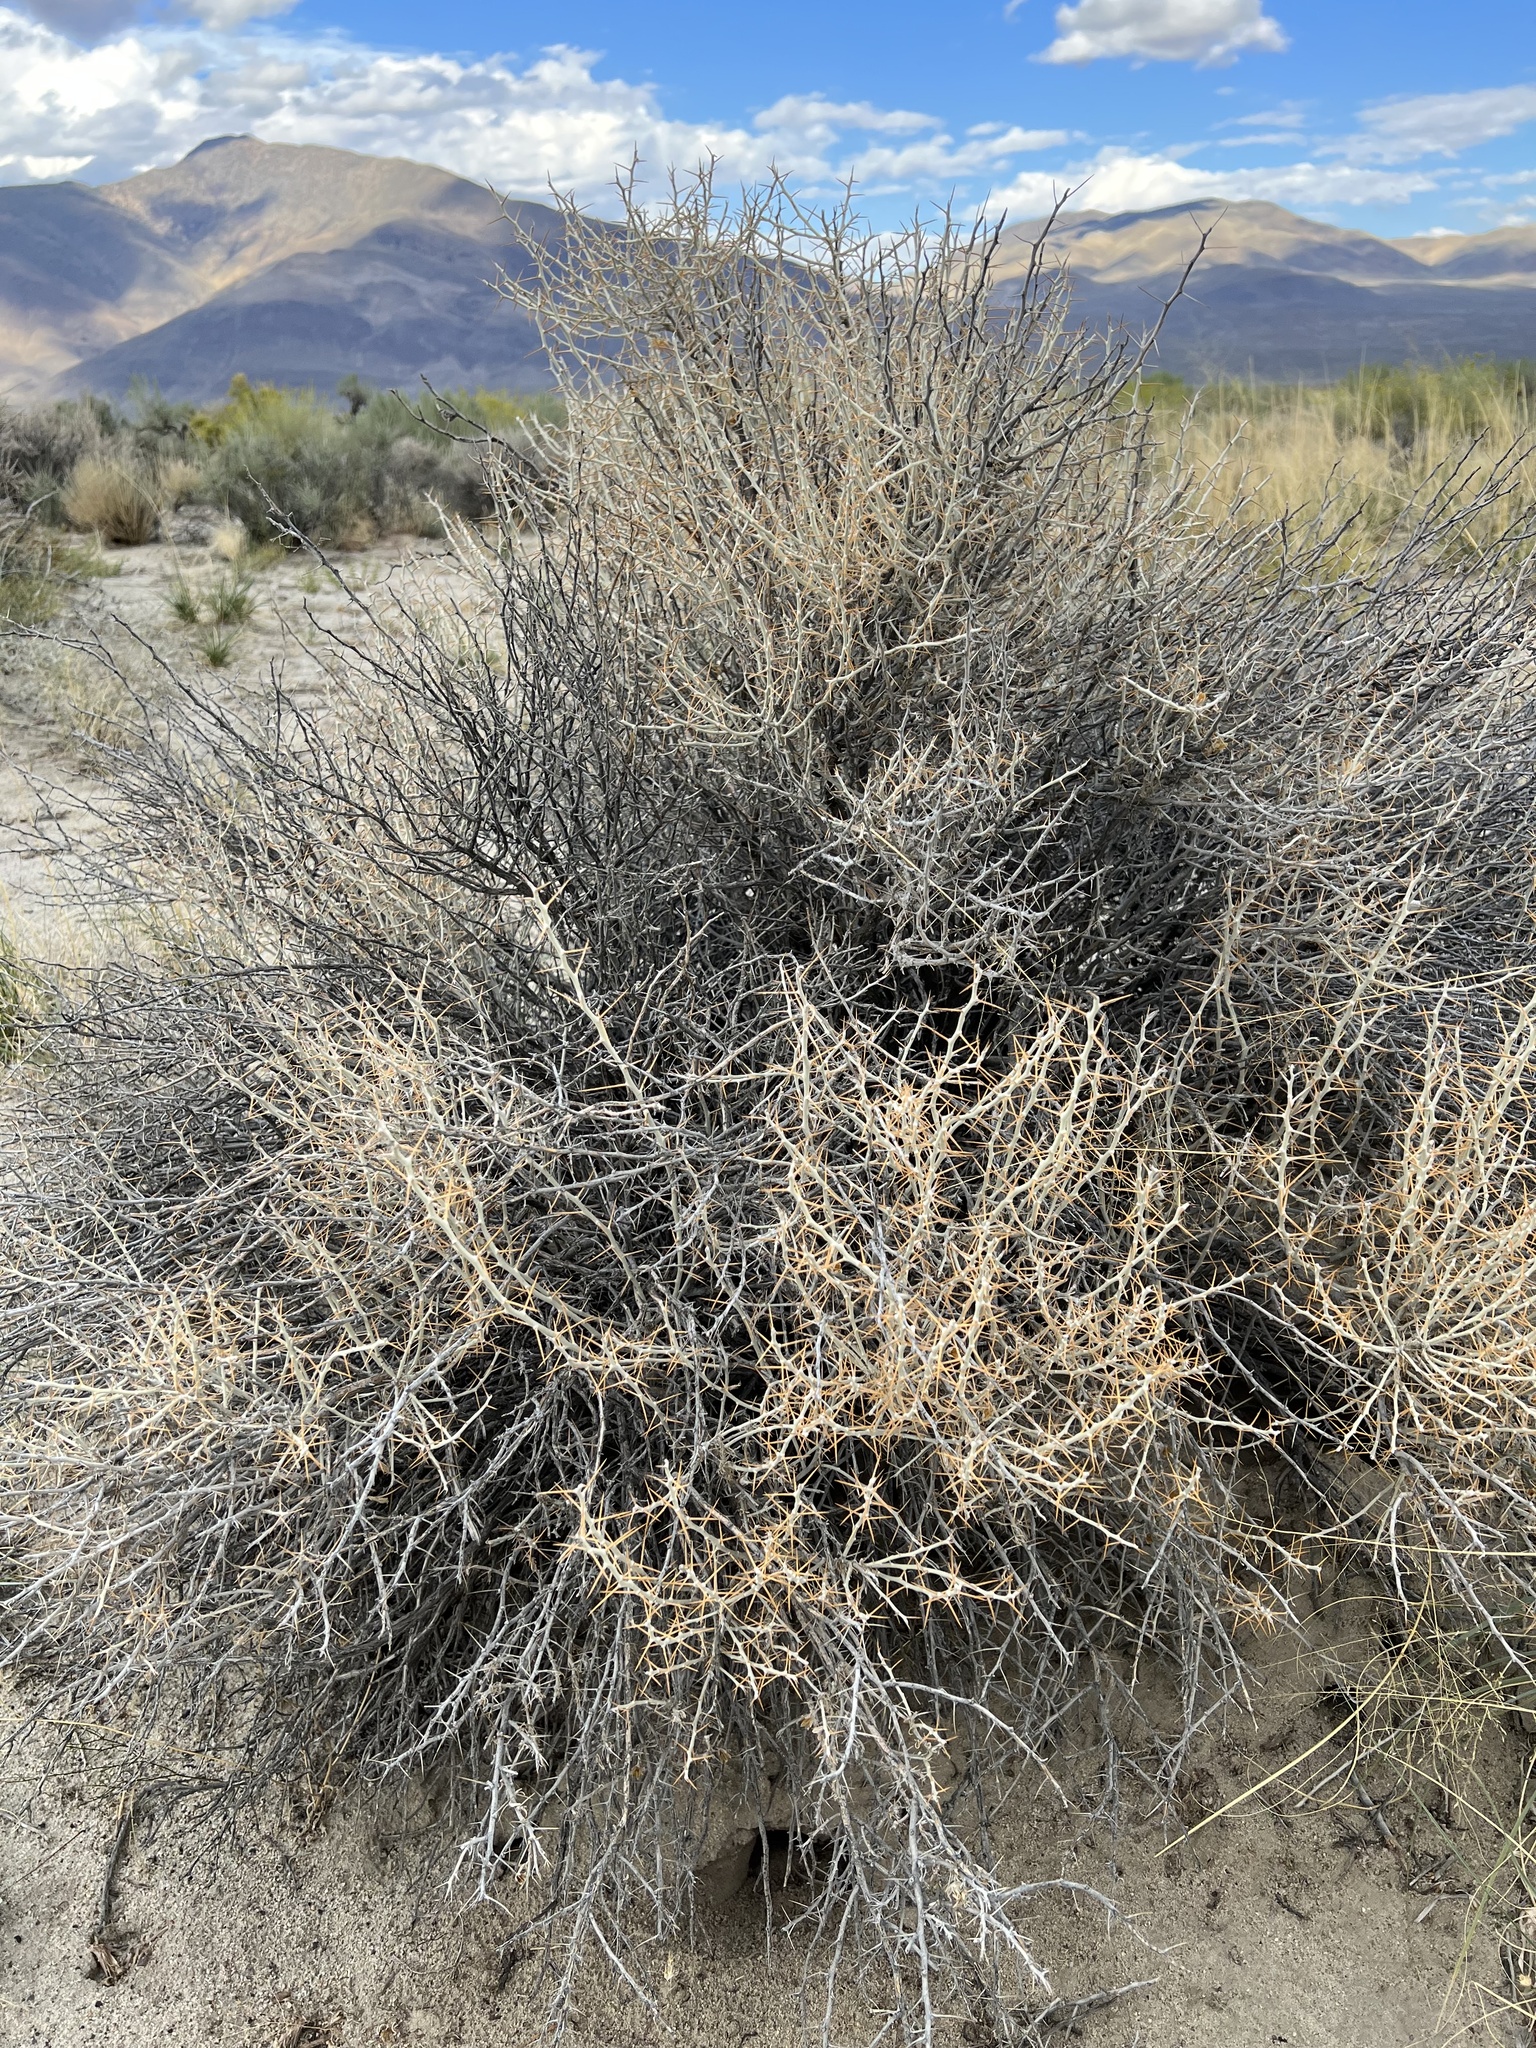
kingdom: Plantae
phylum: Tracheophyta
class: Magnoliopsida
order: Asterales
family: Asteraceae
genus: Tetradymia
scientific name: Tetradymia axillaris
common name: Long-spine horsebrush
